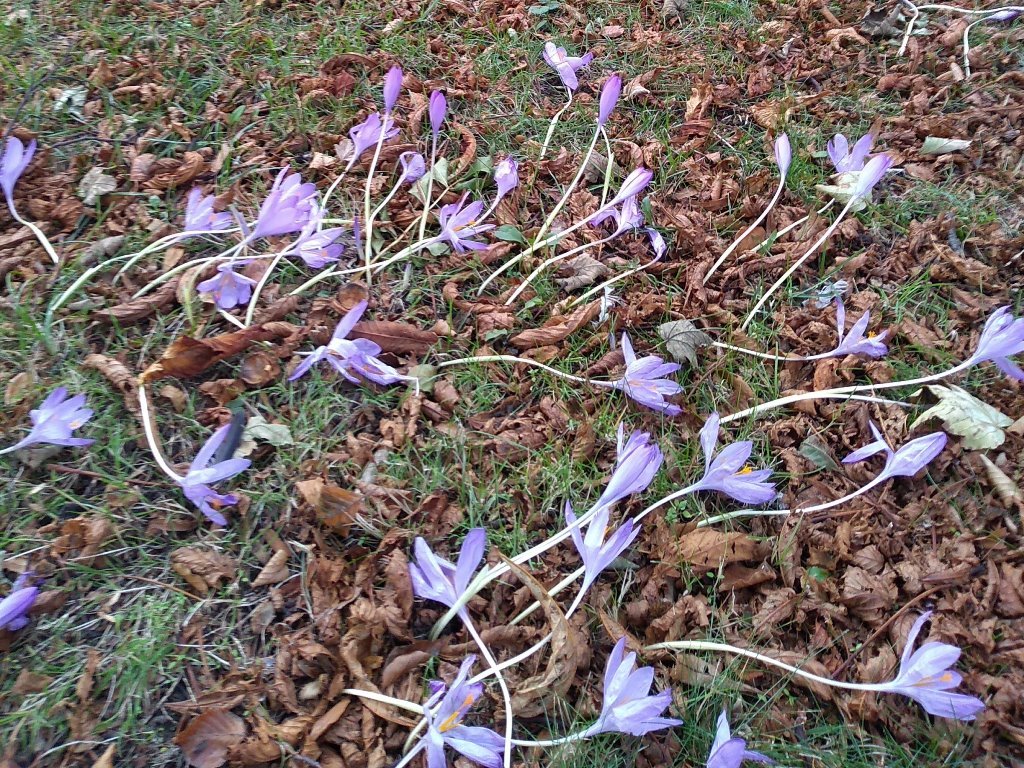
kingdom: Plantae
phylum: Tracheophyta
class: Liliopsida
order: Asparagales
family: Iridaceae
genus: Crocus
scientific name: Crocus nudiflorus
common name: Autumn crocus
